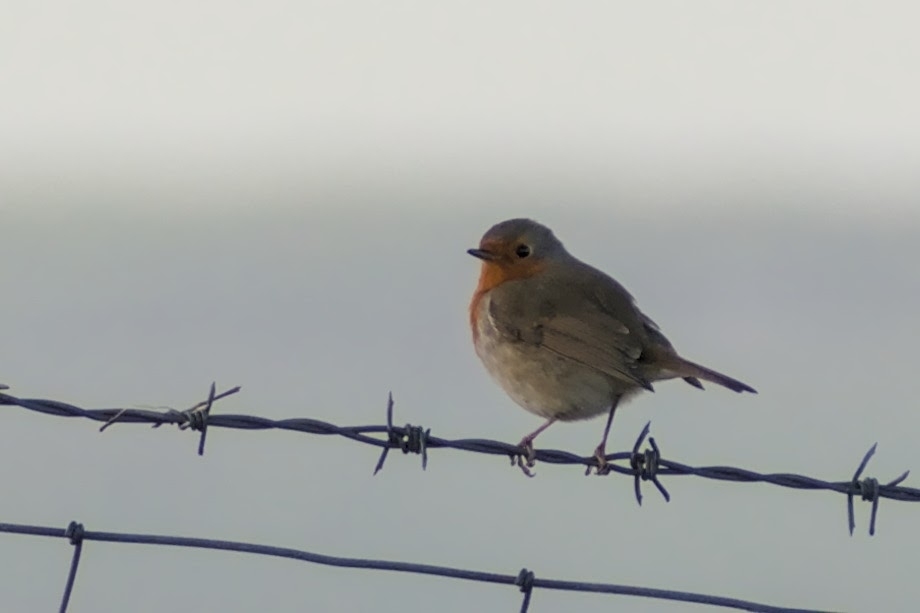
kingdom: Animalia
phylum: Chordata
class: Aves
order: Passeriformes
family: Muscicapidae
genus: Erithacus
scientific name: Erithacus rubecula
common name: European robin
